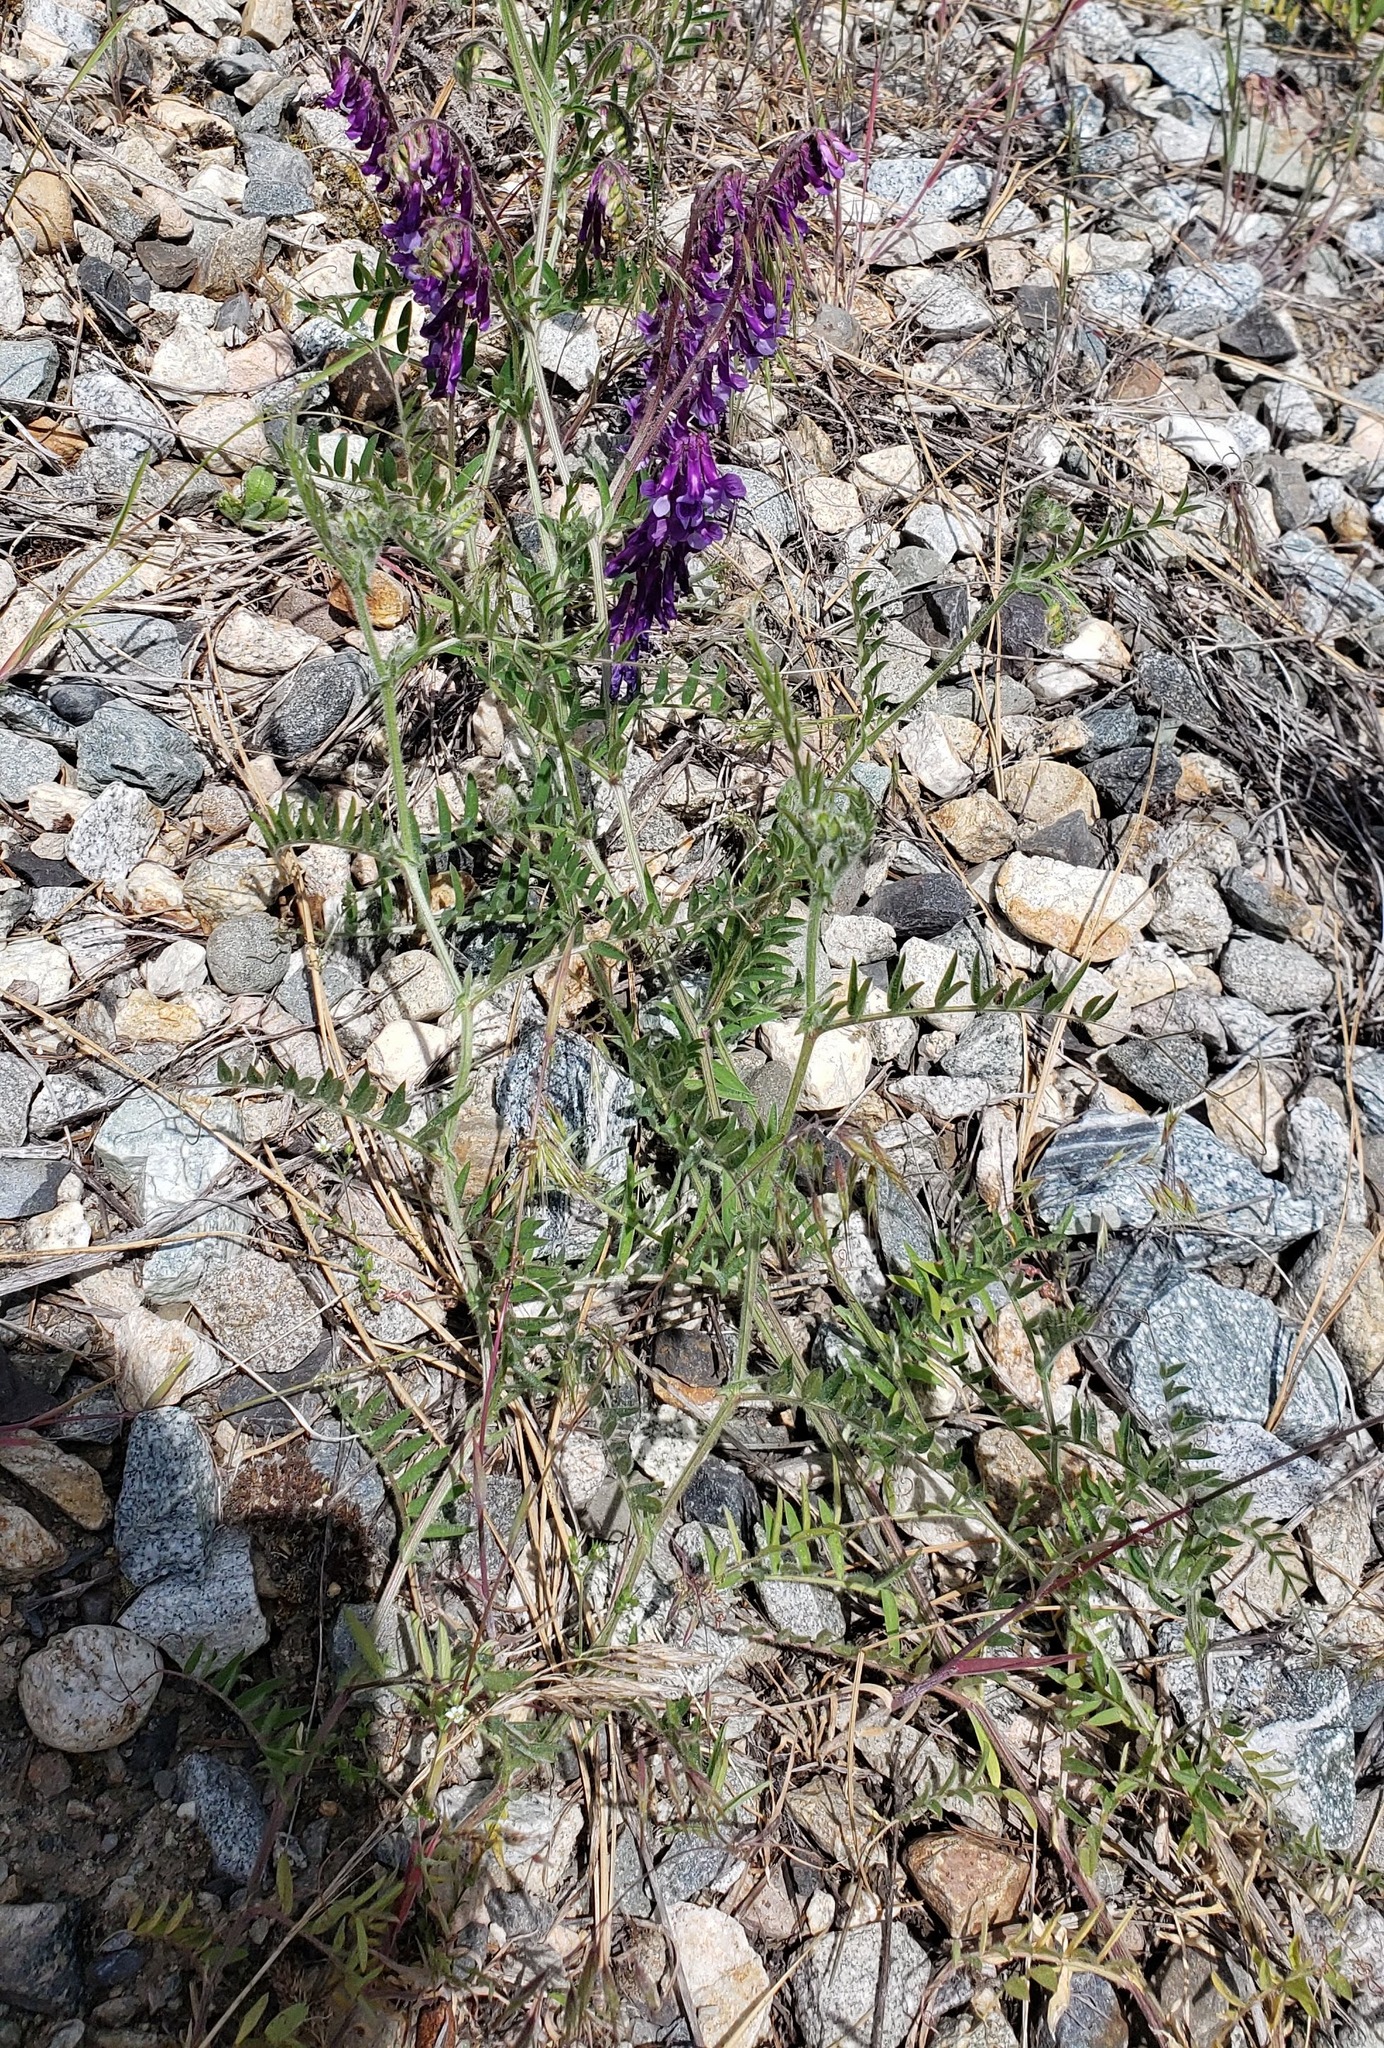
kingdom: Plantae
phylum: Tracheophyta
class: Magnoliopsida
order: Fabales
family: Fabaceae
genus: Vicia
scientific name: Vicia villosa
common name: Fodder vetch
